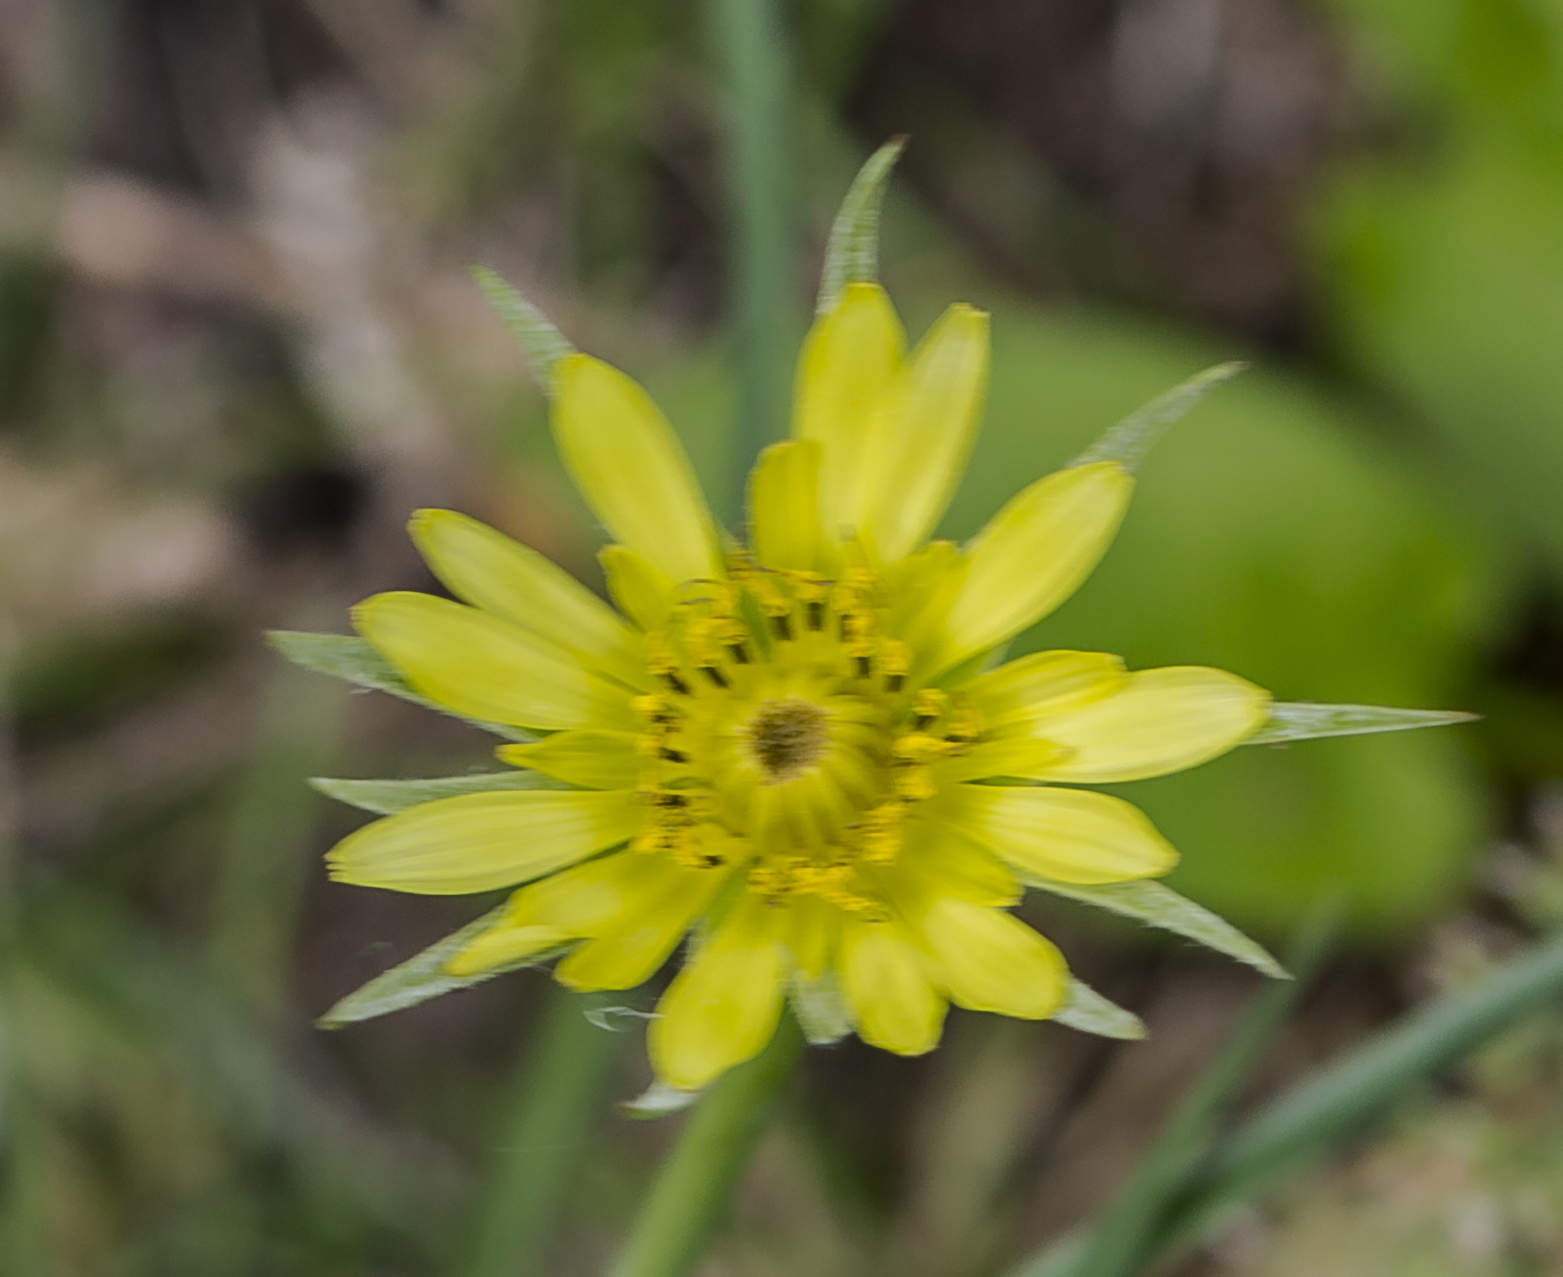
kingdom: Plantae
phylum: Tracheophyta
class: Magnoliopsida
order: Asterales
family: Asteraceae
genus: Tragopogon
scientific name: Tragopogon dubius
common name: Yellow salsify
